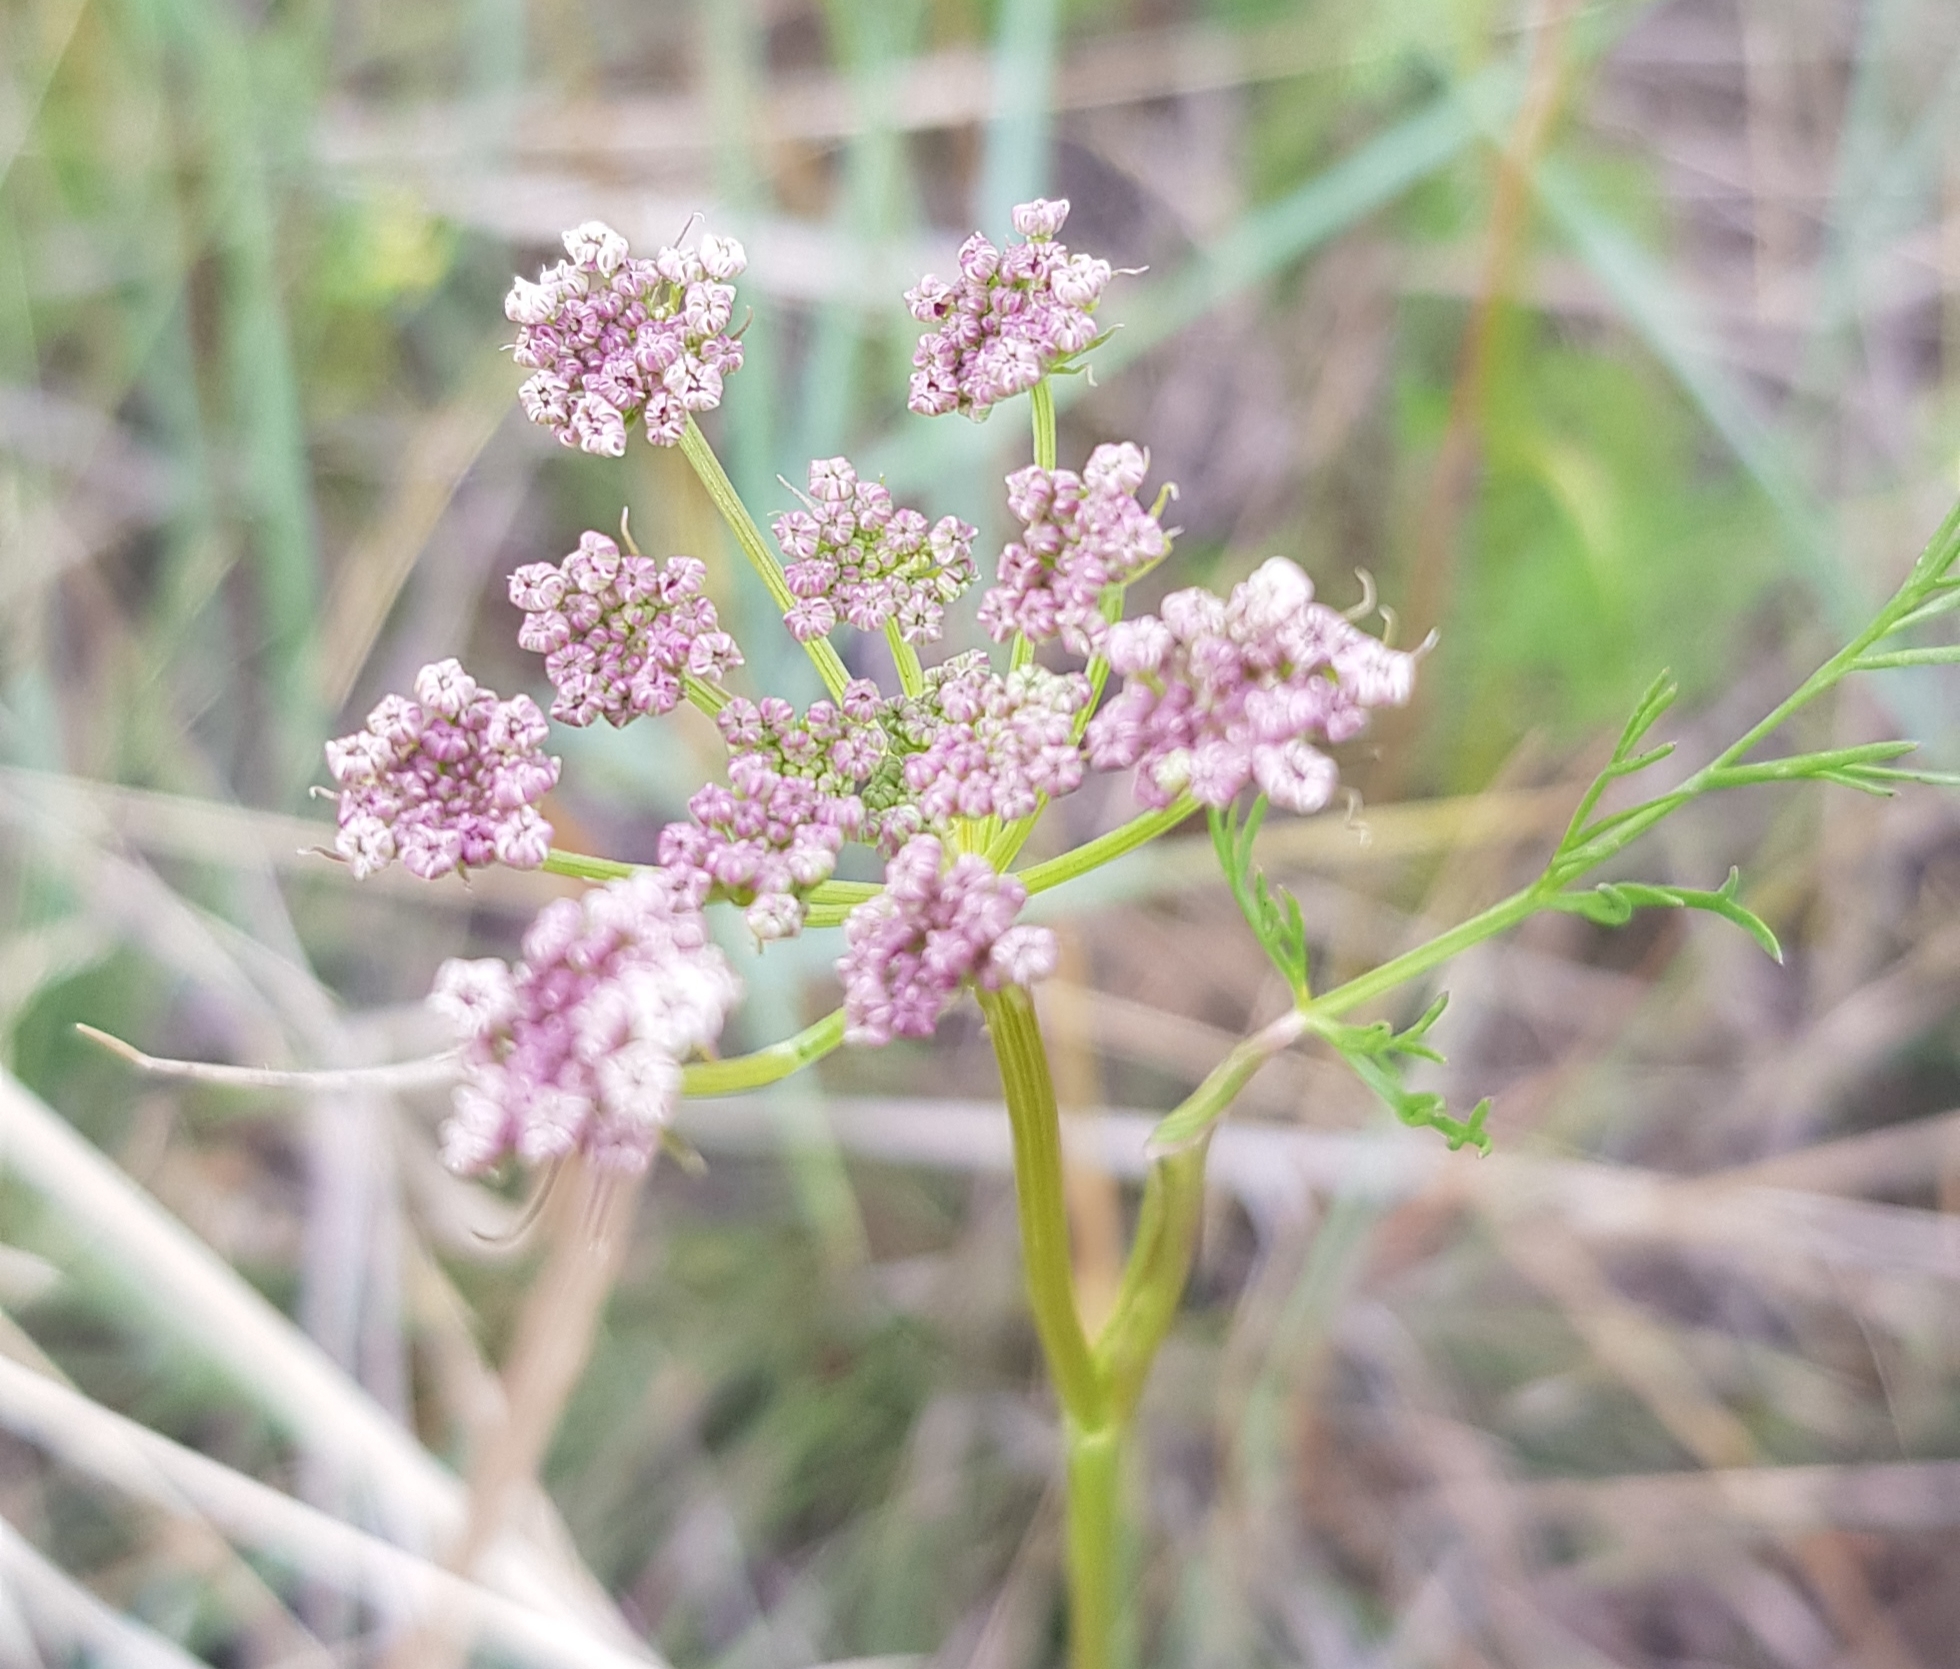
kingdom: Plantae
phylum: Tracheophyta
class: Magnoliopsida
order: Apiales
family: Apiaceae
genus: Carum
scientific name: Carum carvi
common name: Caraway
